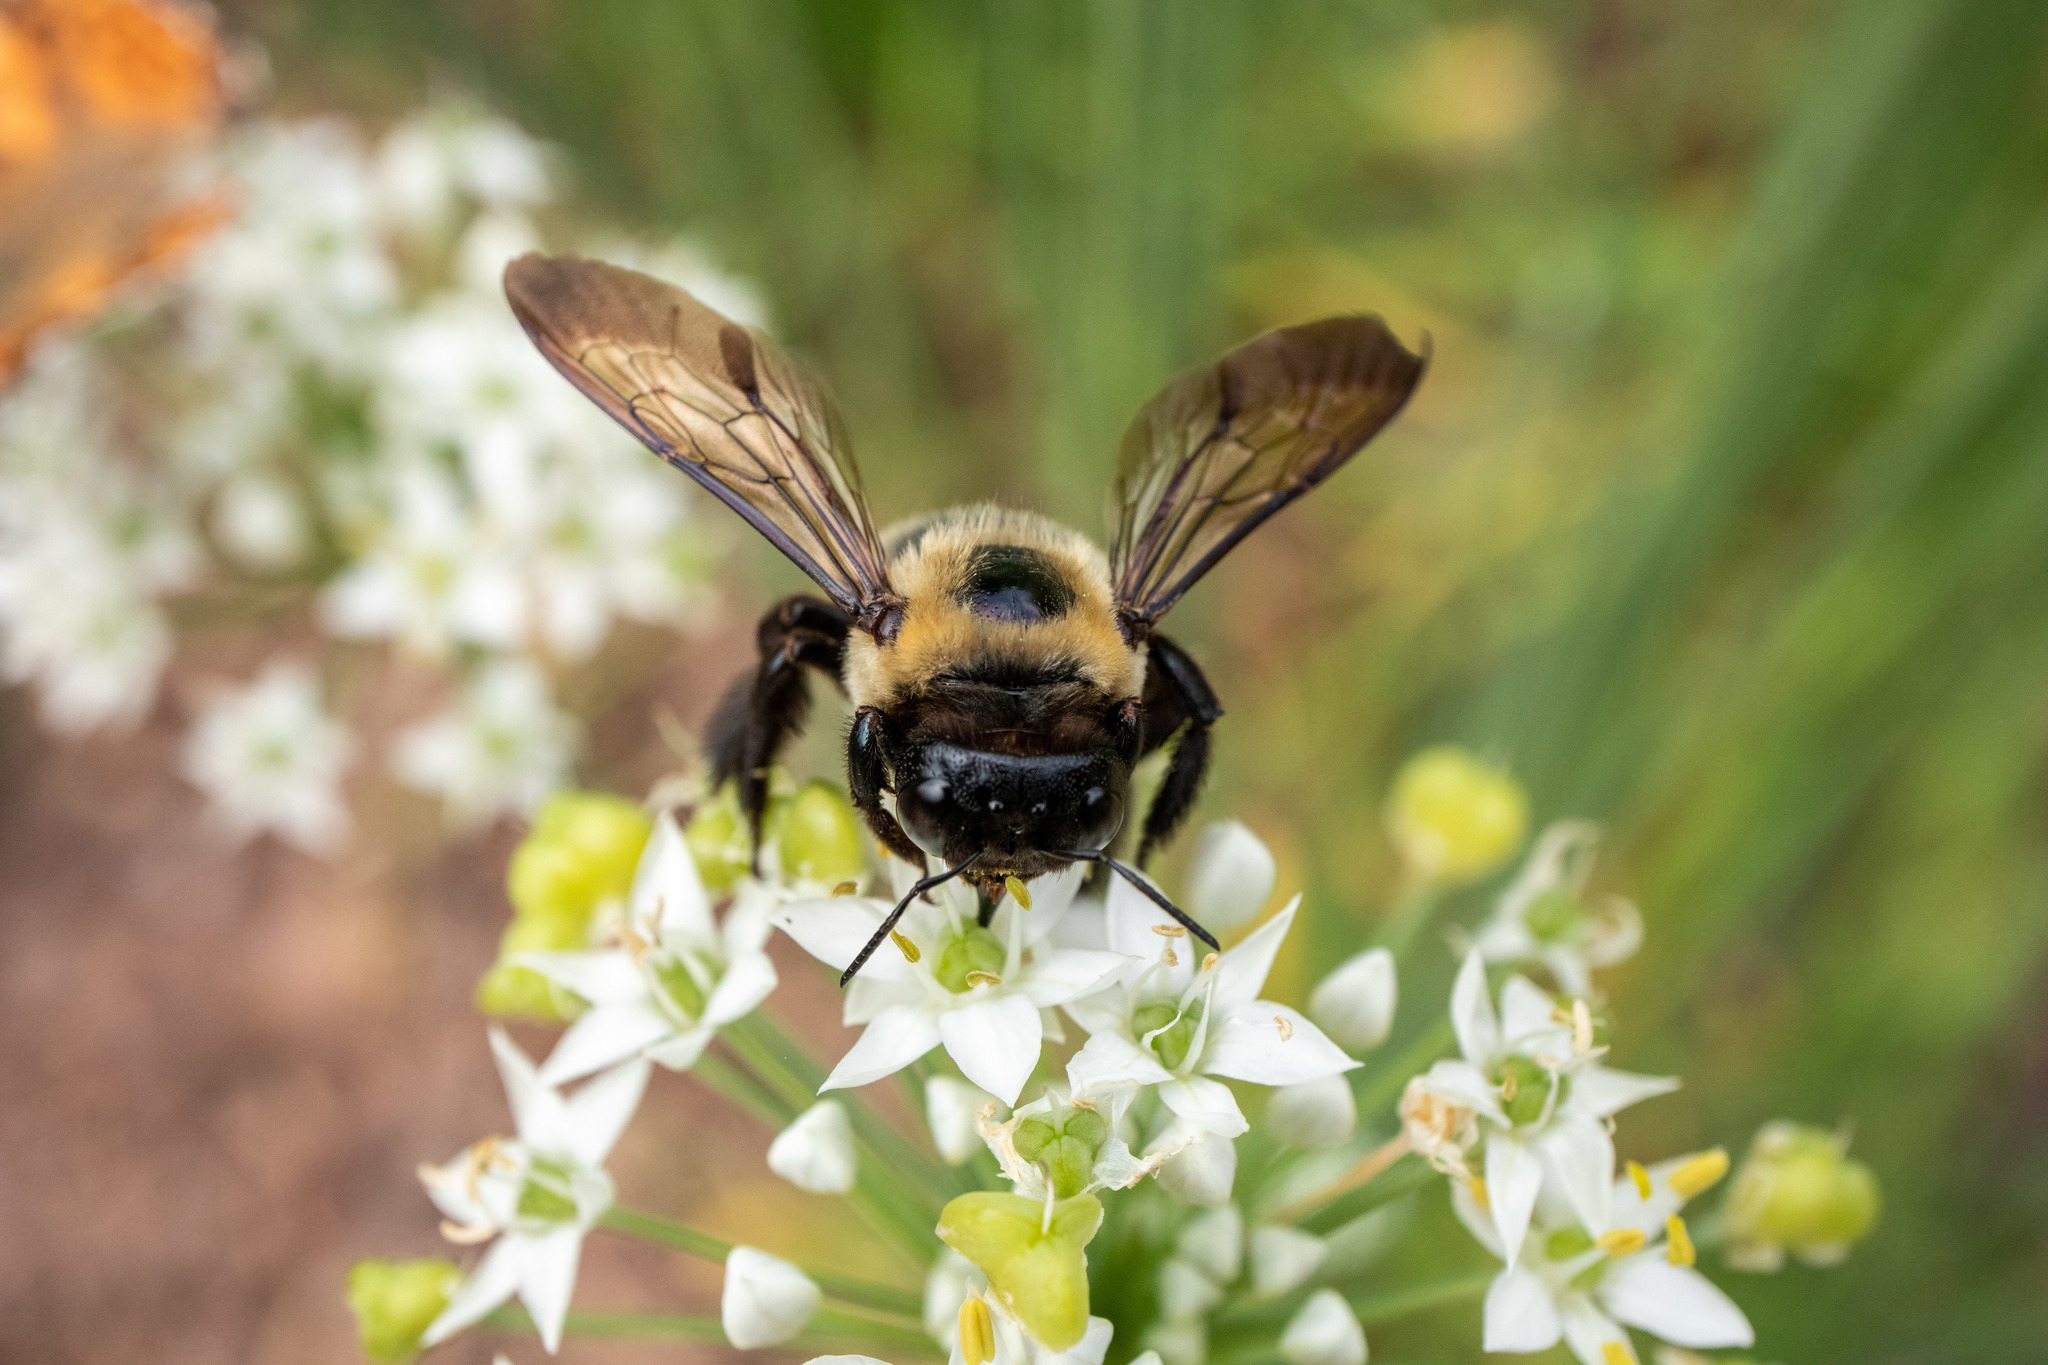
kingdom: Animalia
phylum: Arthropoda
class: Insecta
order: Hymenoptera
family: Apidae
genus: Xylocopa
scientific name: Xylocopa virginica
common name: Carpenter bee
